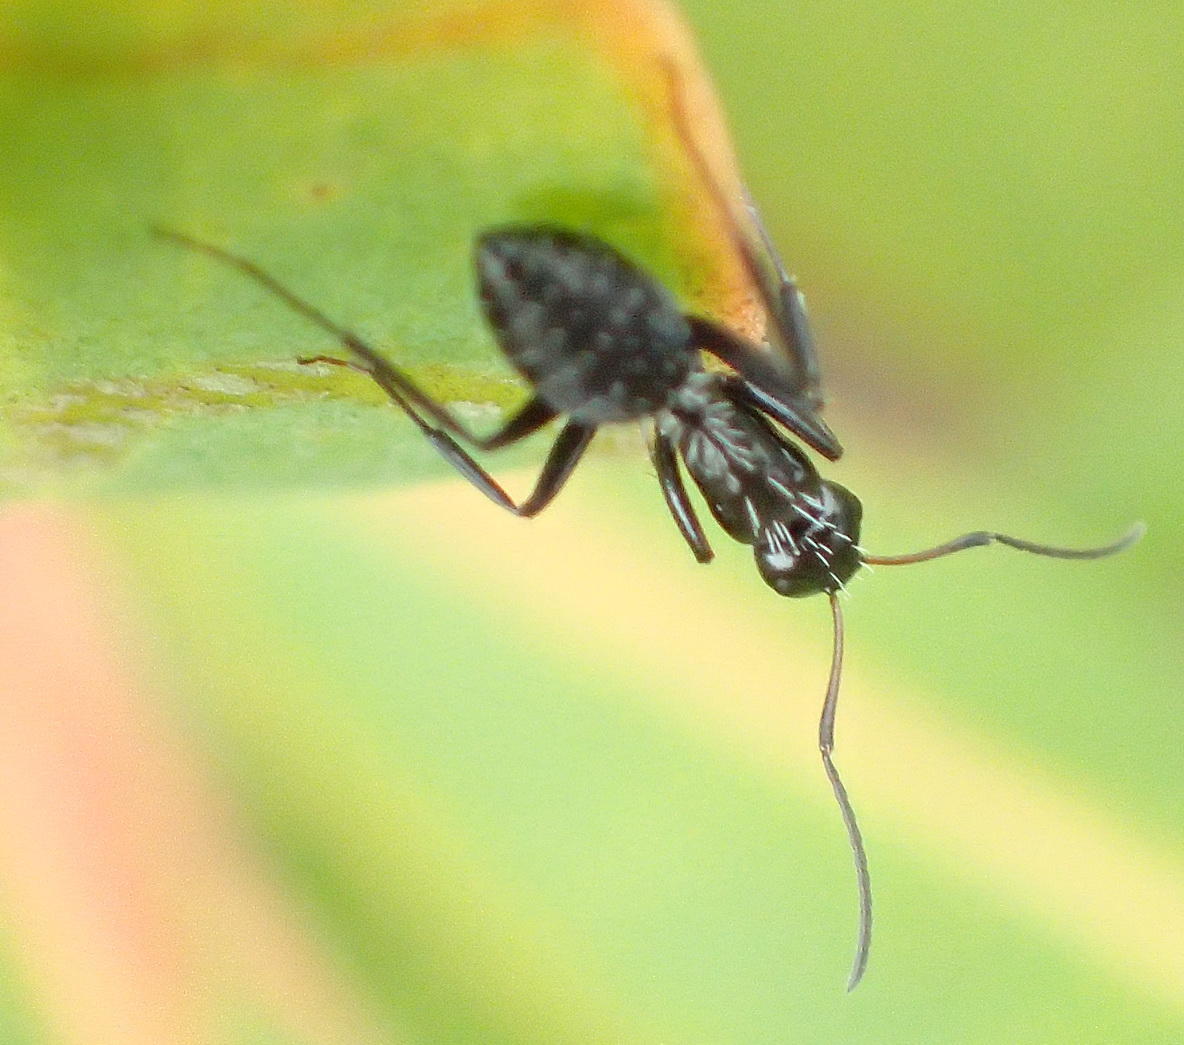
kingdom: Animalia
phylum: Arthropoda
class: Insecta
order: Hymenoptera
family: Formicidae
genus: Camponotus
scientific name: Camponotus niveosetosus
